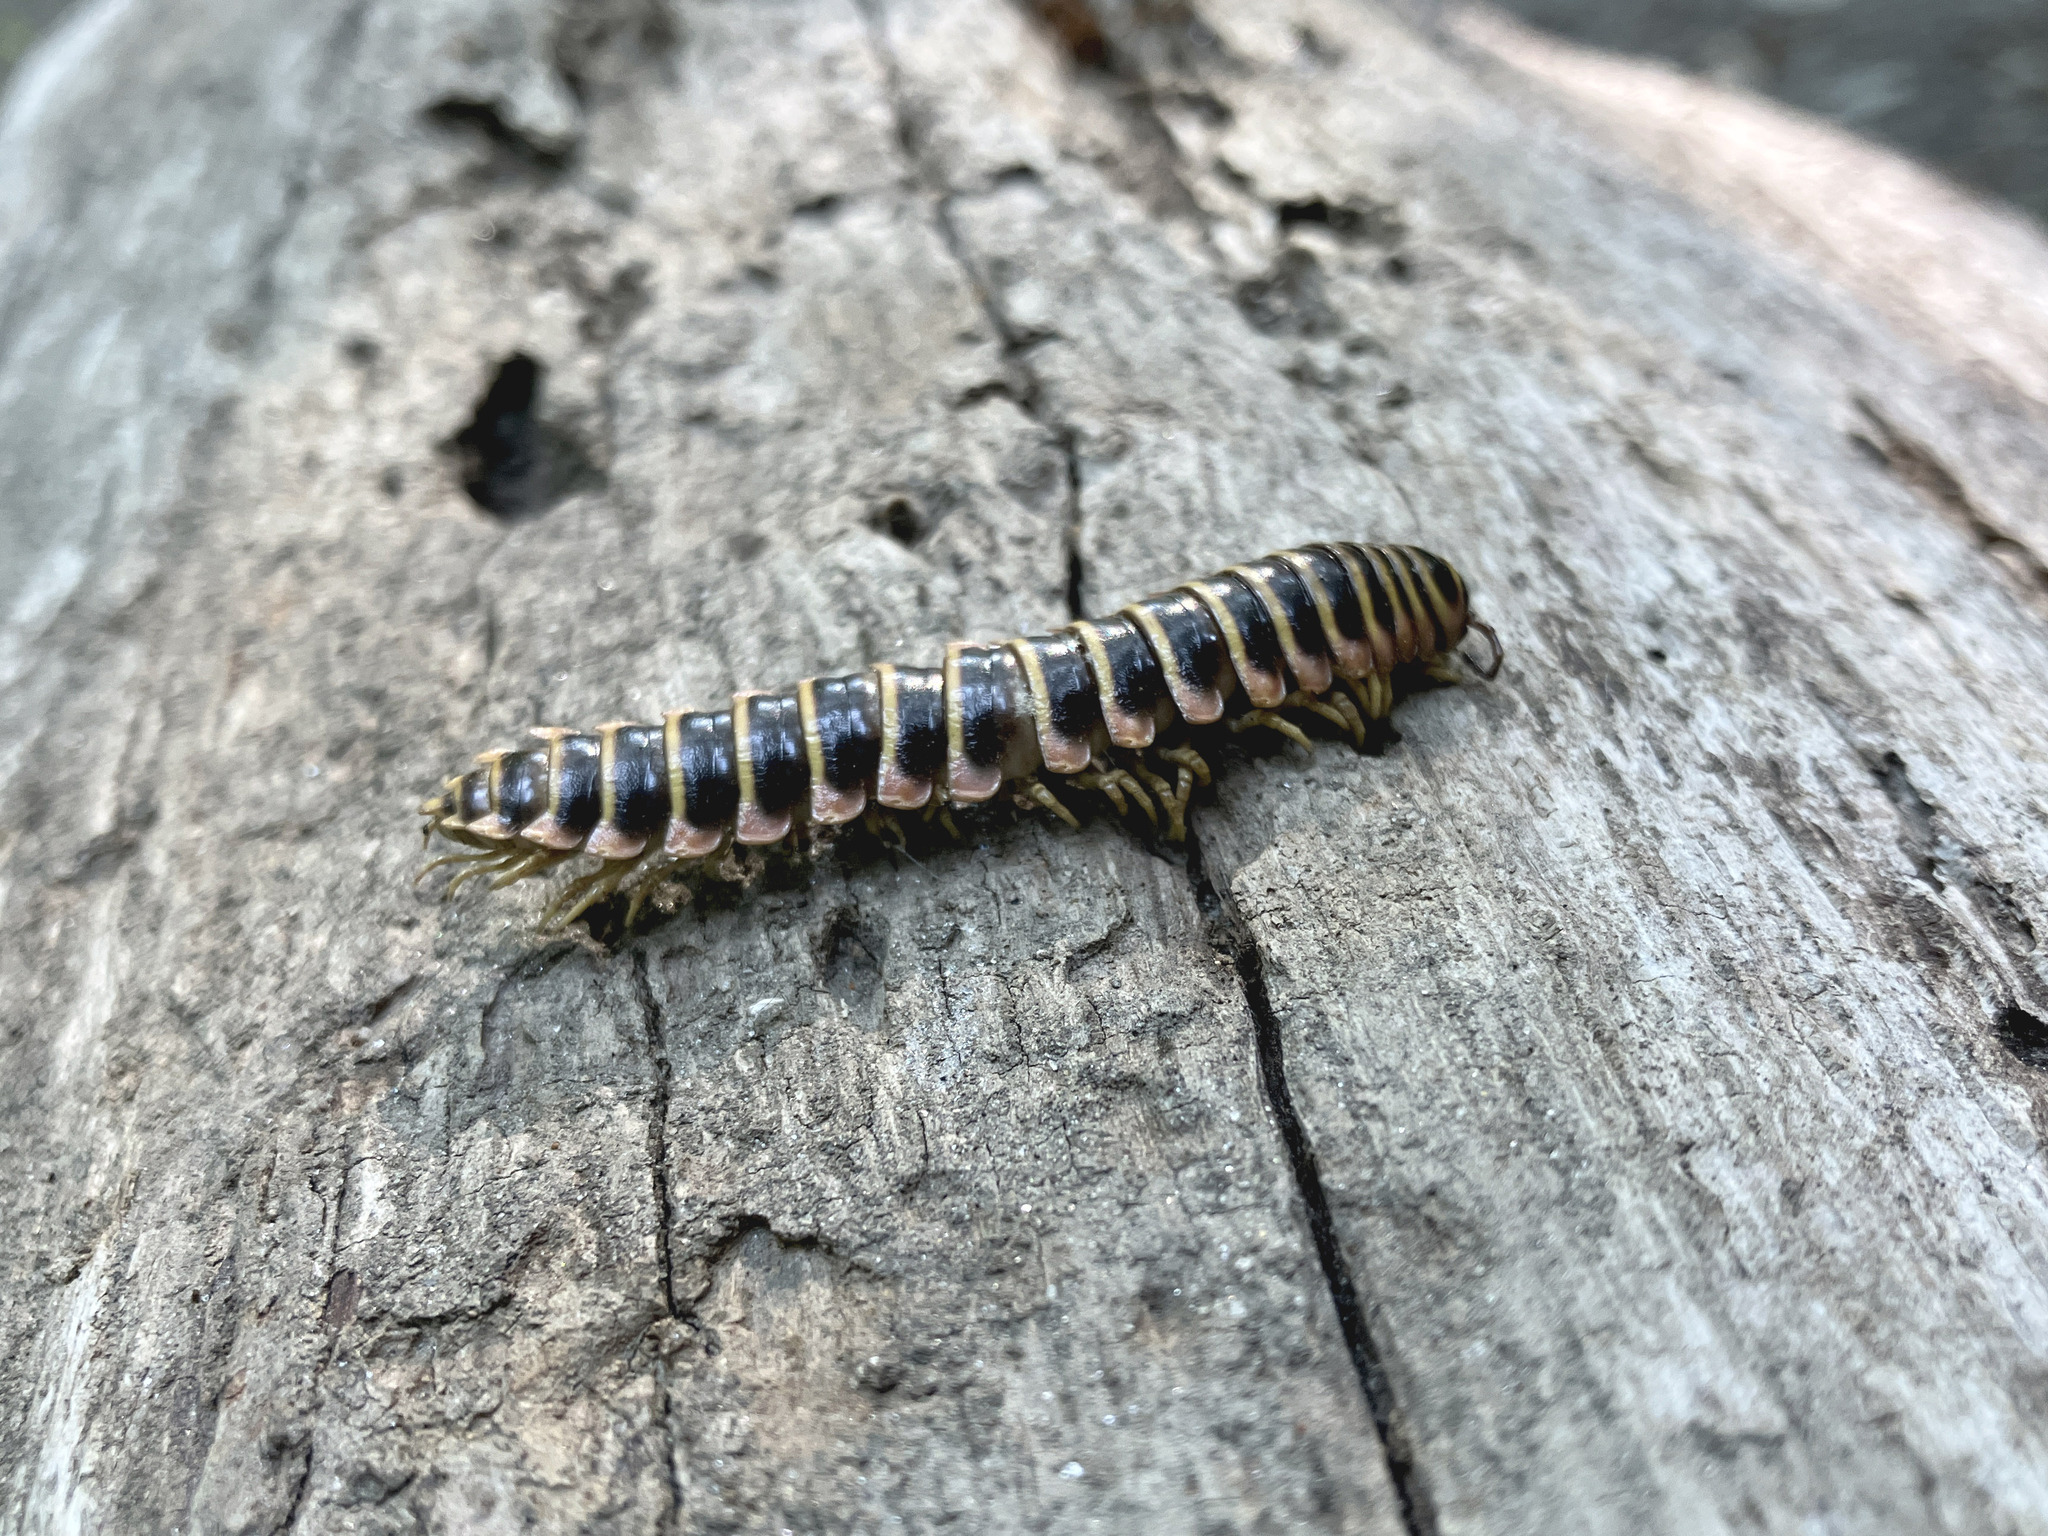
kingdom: Animalia
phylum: Arthropoda
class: Diplopoda
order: Polydesmida
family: Xystodesmidae
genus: Apheloria
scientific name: Apheloria virginiensis
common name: Black-and-gold flat millipede
